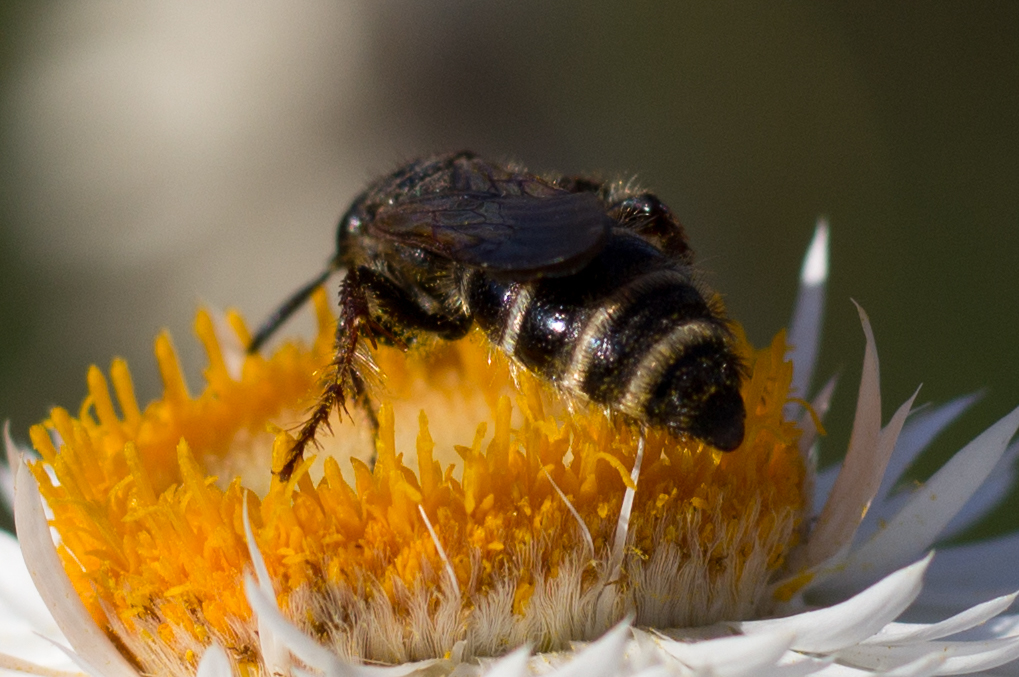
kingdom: Animalia
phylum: Arthropoda
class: Insecta
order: Hymenoptera
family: Scoliidae
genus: Colpa
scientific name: Colpa quinquecincta
